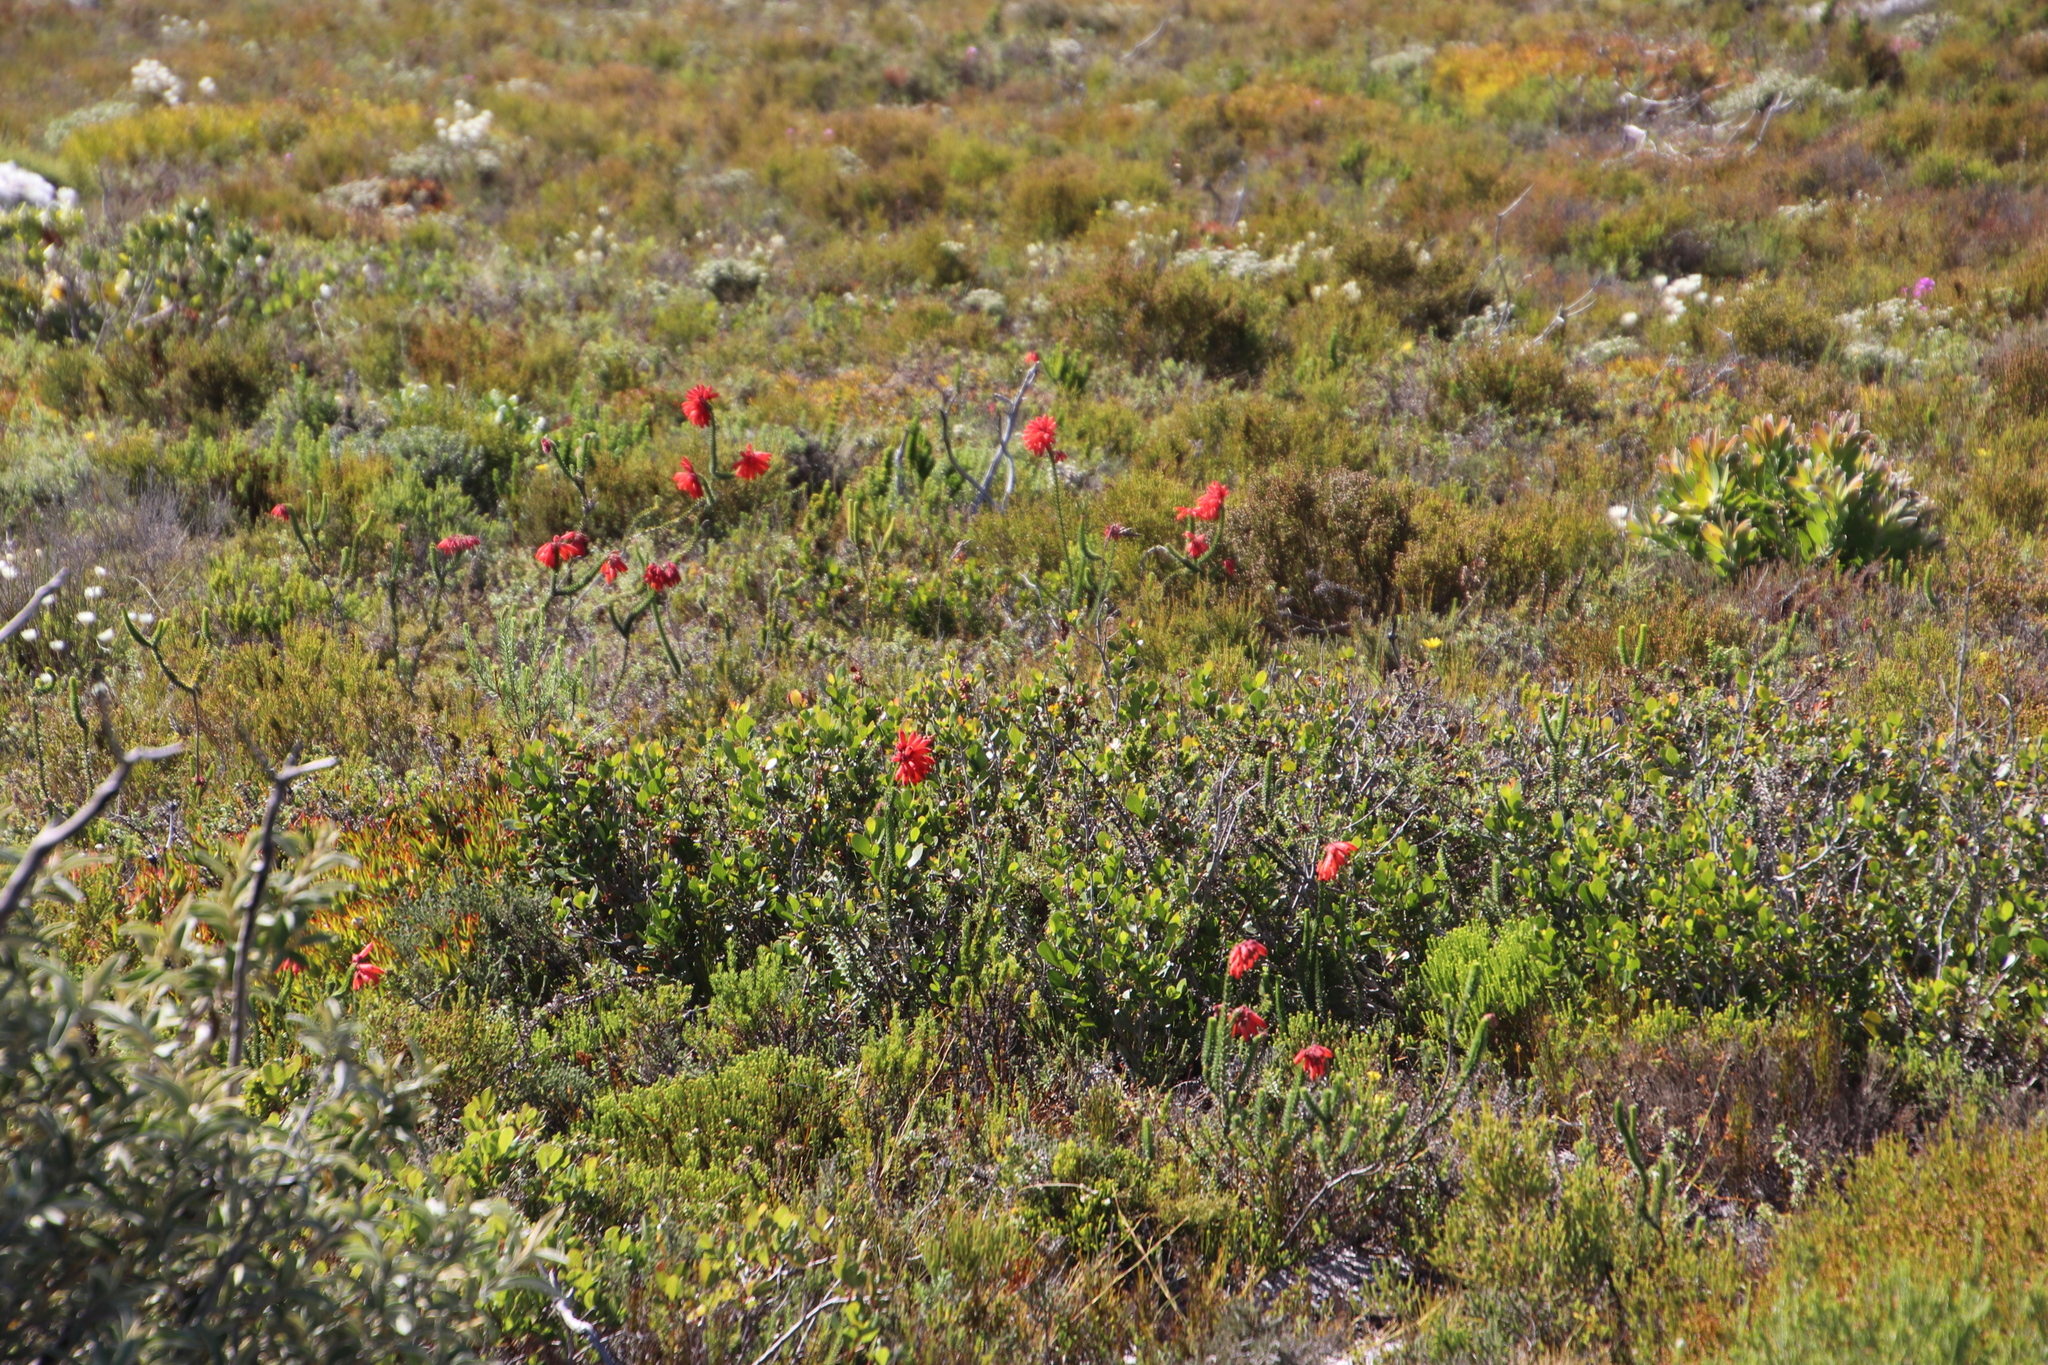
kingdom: Plantae
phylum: Tracheophyta
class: Magnoliopsida
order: Ericales
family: Ericaceae
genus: Erica
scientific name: Erica cerinthoides
